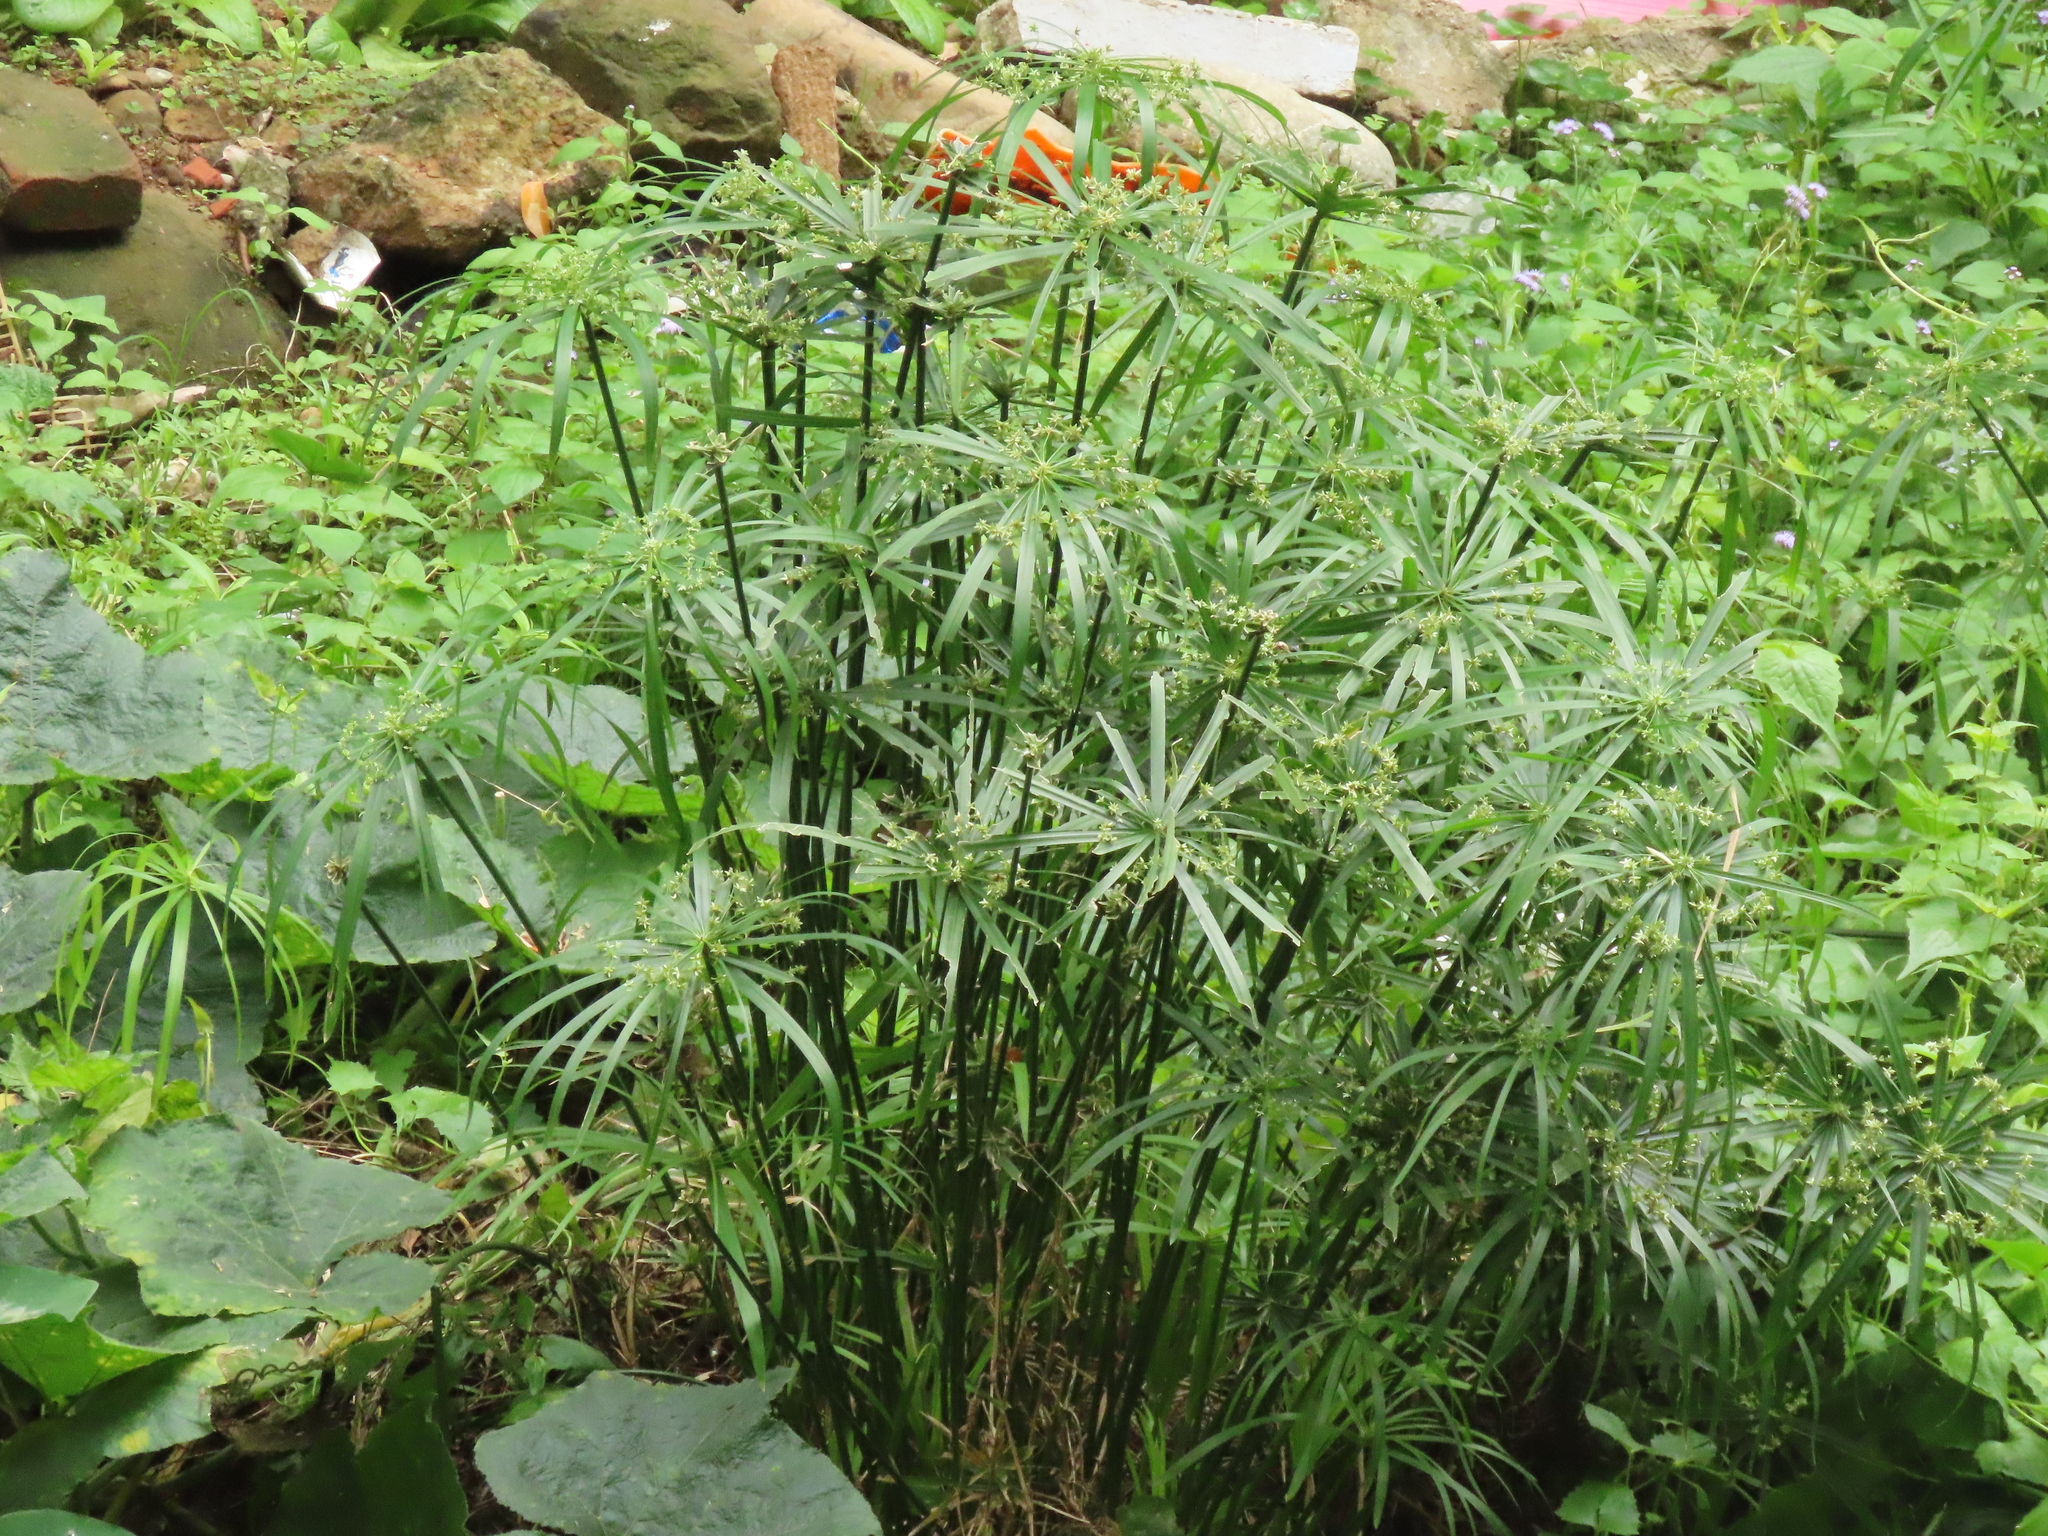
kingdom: Plantae
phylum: Tracheophyta
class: Liliopsida
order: Poales
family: Cyperaceae
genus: Cyperus
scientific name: Cyperus alternifolius
